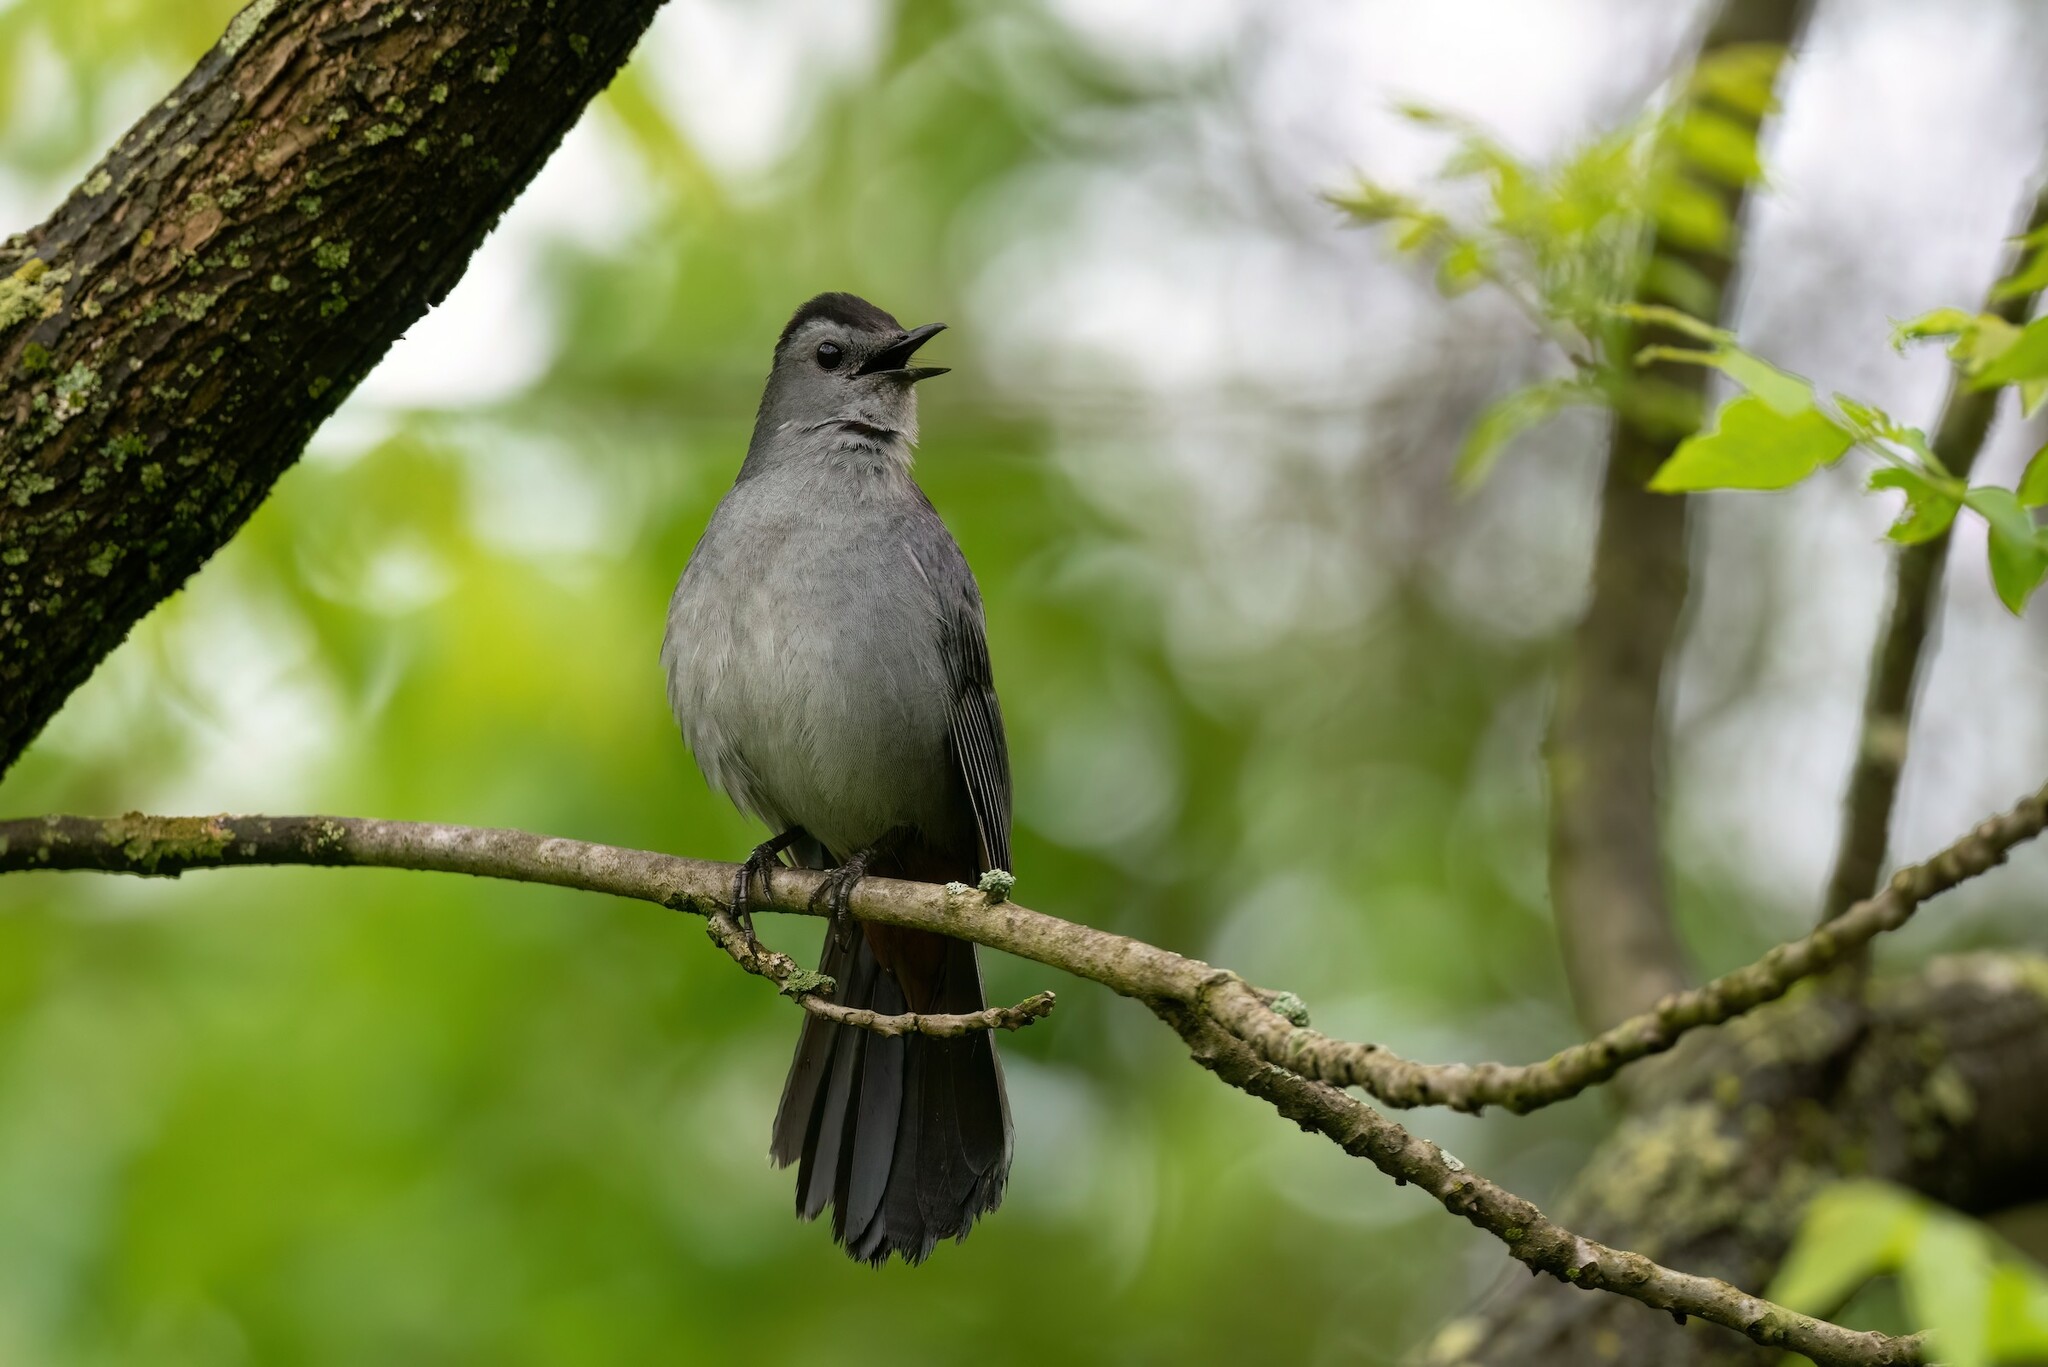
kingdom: Animalia
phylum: Chordata
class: Aves
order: Passeriformes
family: Mimidae
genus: Dumetella
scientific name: Dumetella carolinensis
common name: Gray catbird
